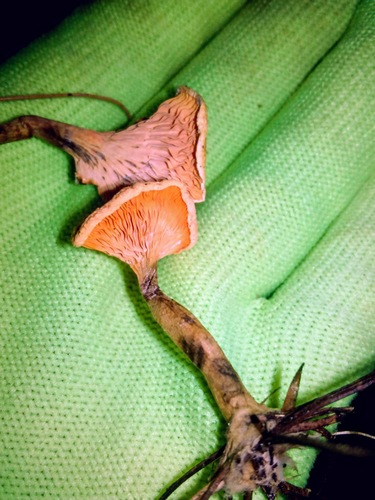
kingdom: Fungi
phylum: Basidiomycota
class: Agaricomycetes
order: Boletales
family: Hygrophoropsidaceae
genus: Hygrophoropsis
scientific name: Hygrophoropsis aurantiaca
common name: False chanterelle
